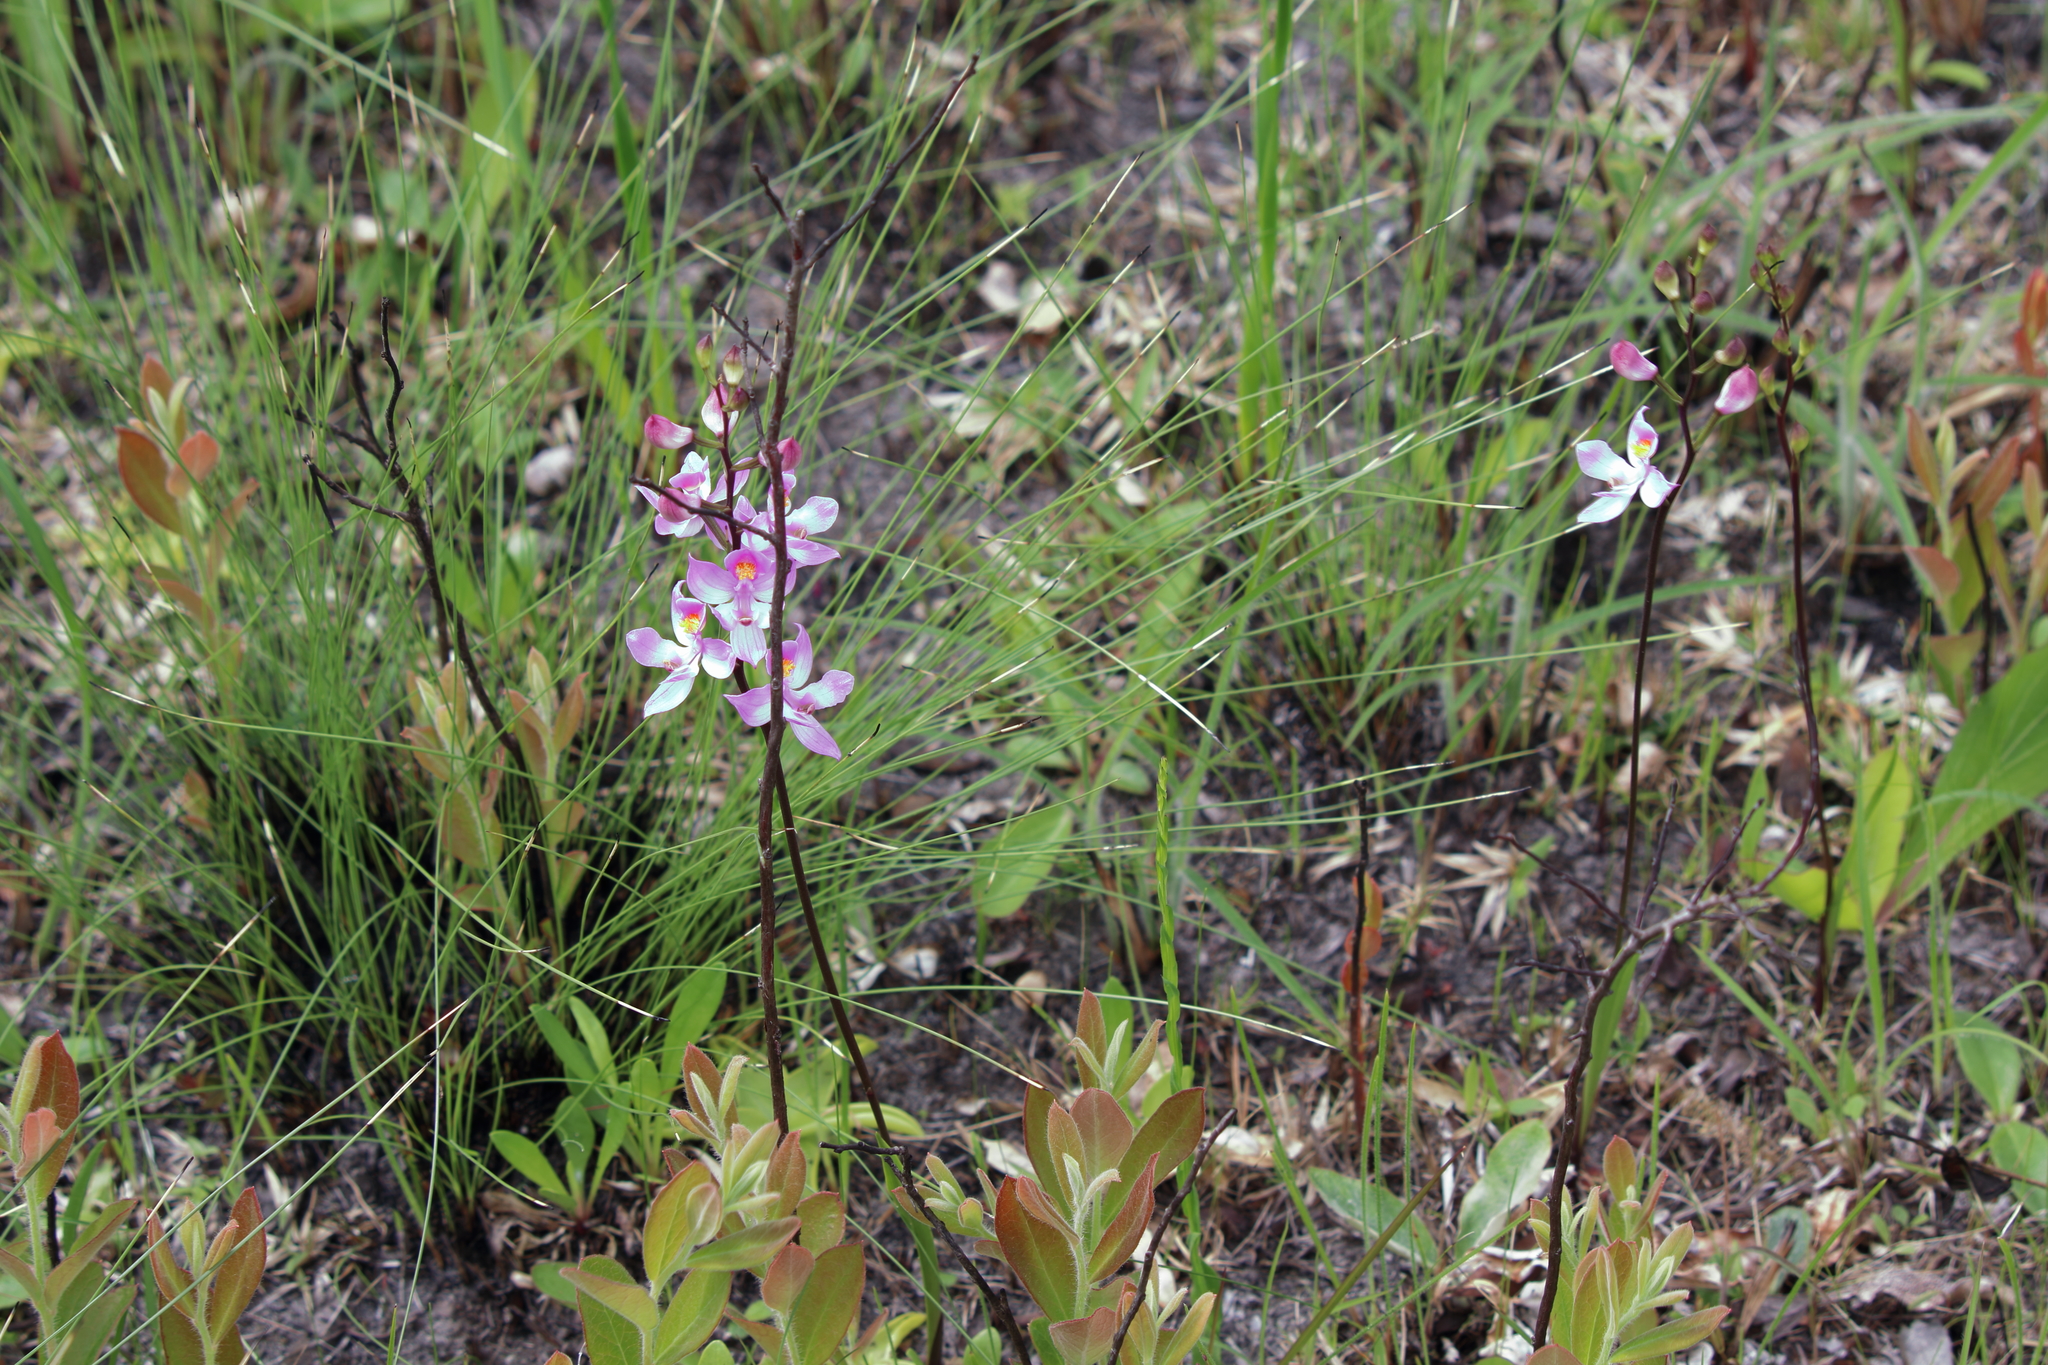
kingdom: Plantae
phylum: Tracheophyta
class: Liliopsida
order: Asparagales
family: Orchidaceae
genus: Calopogon
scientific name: Calopogon multiflorus
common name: Many-flowered grass-pink orchid
